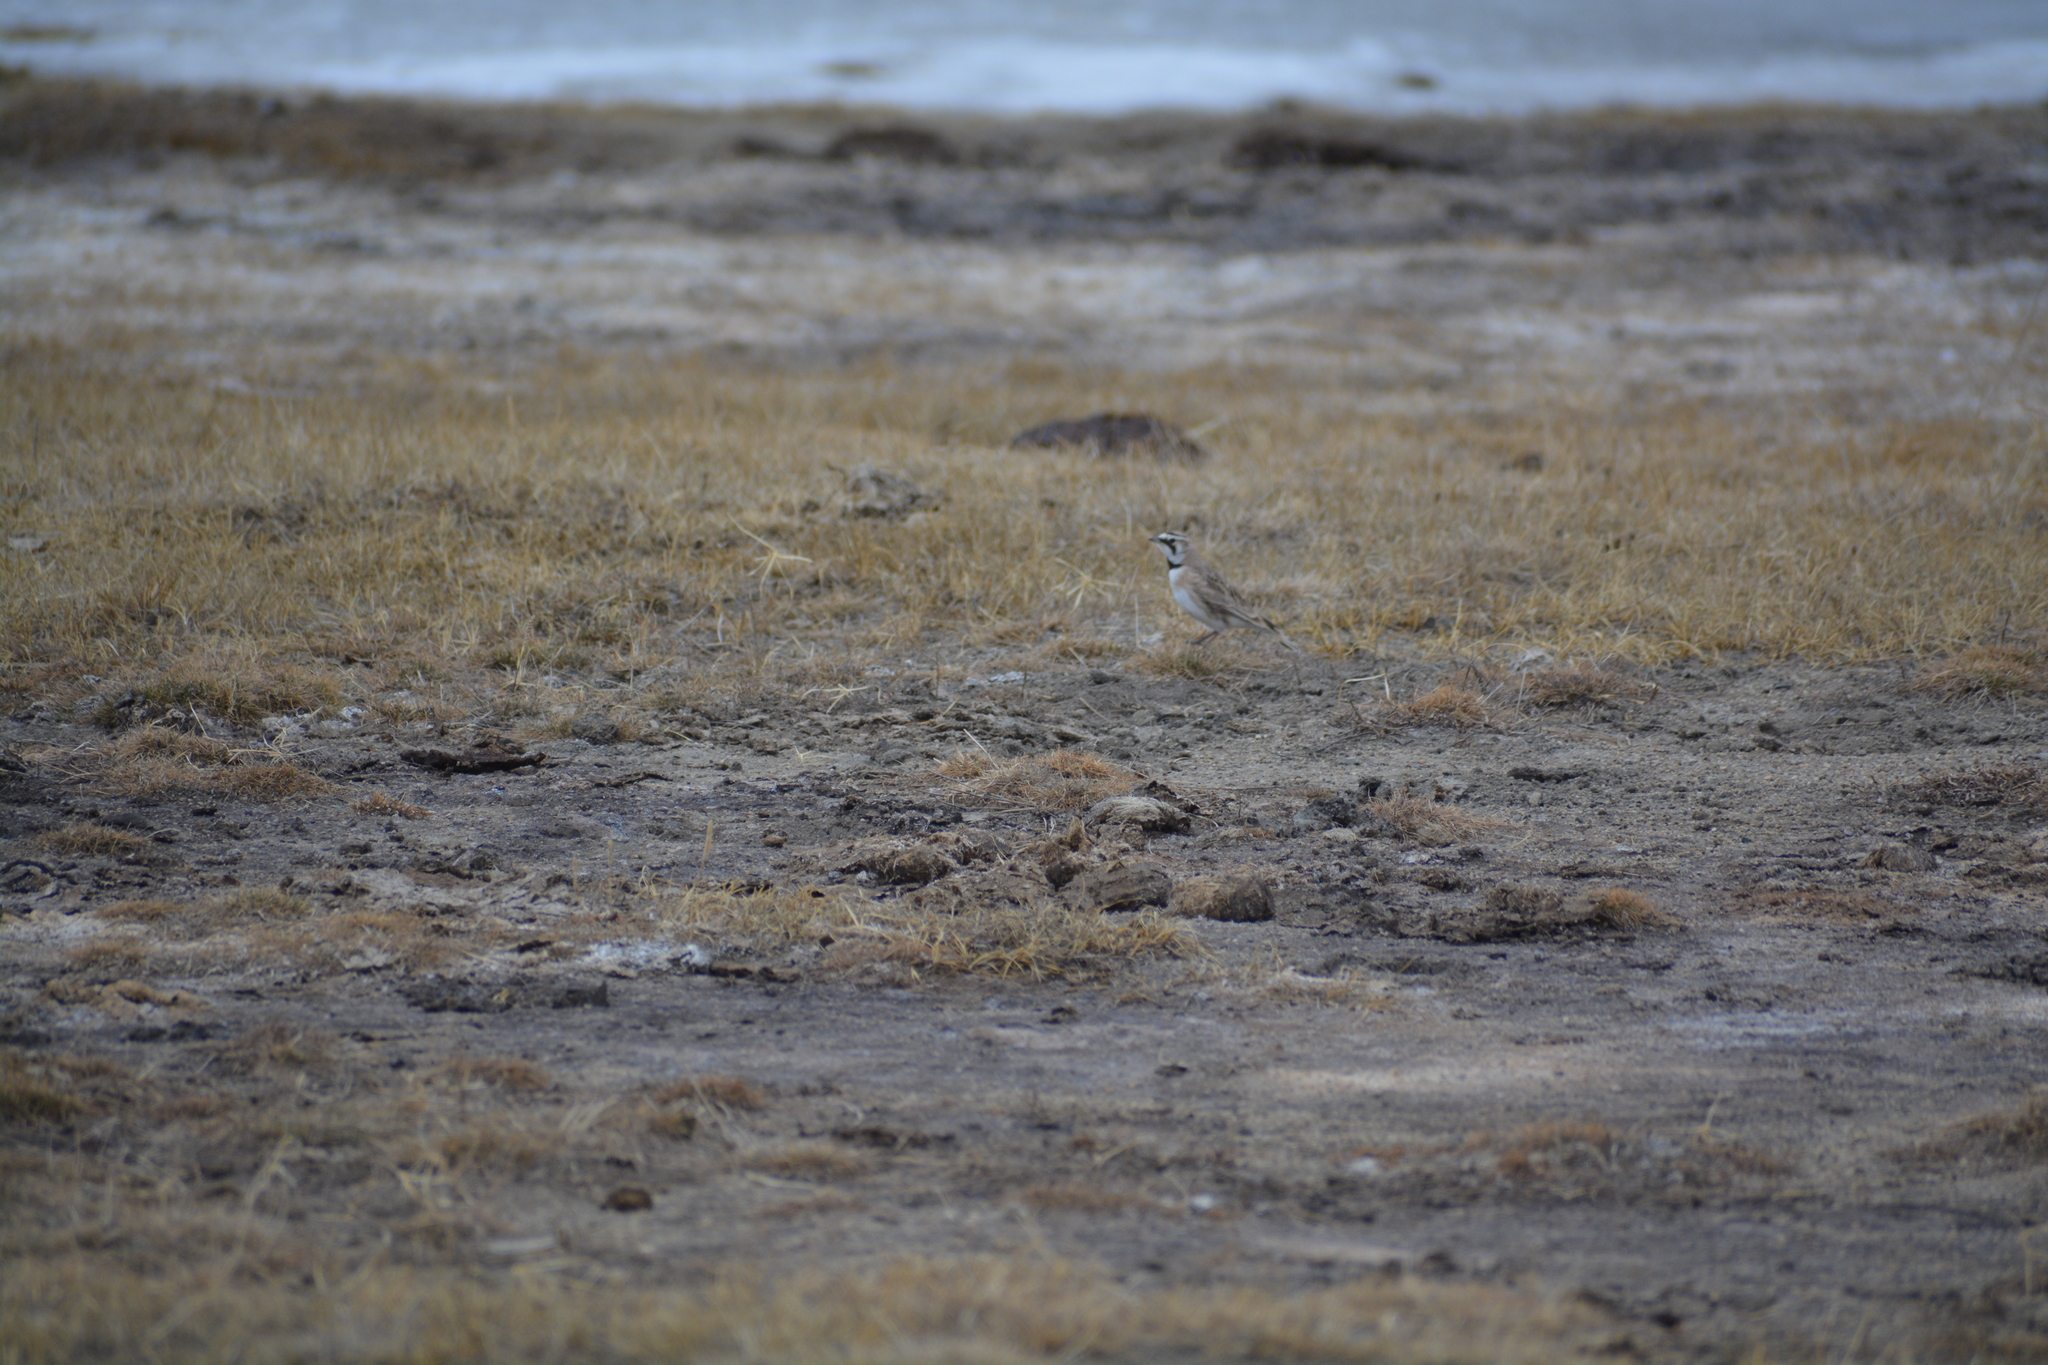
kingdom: Animalia
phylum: Chordata
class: Aves
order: Passeriformes
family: Alaudidae
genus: Eremophila
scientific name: Eremophila alpestris
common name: Horned lark
